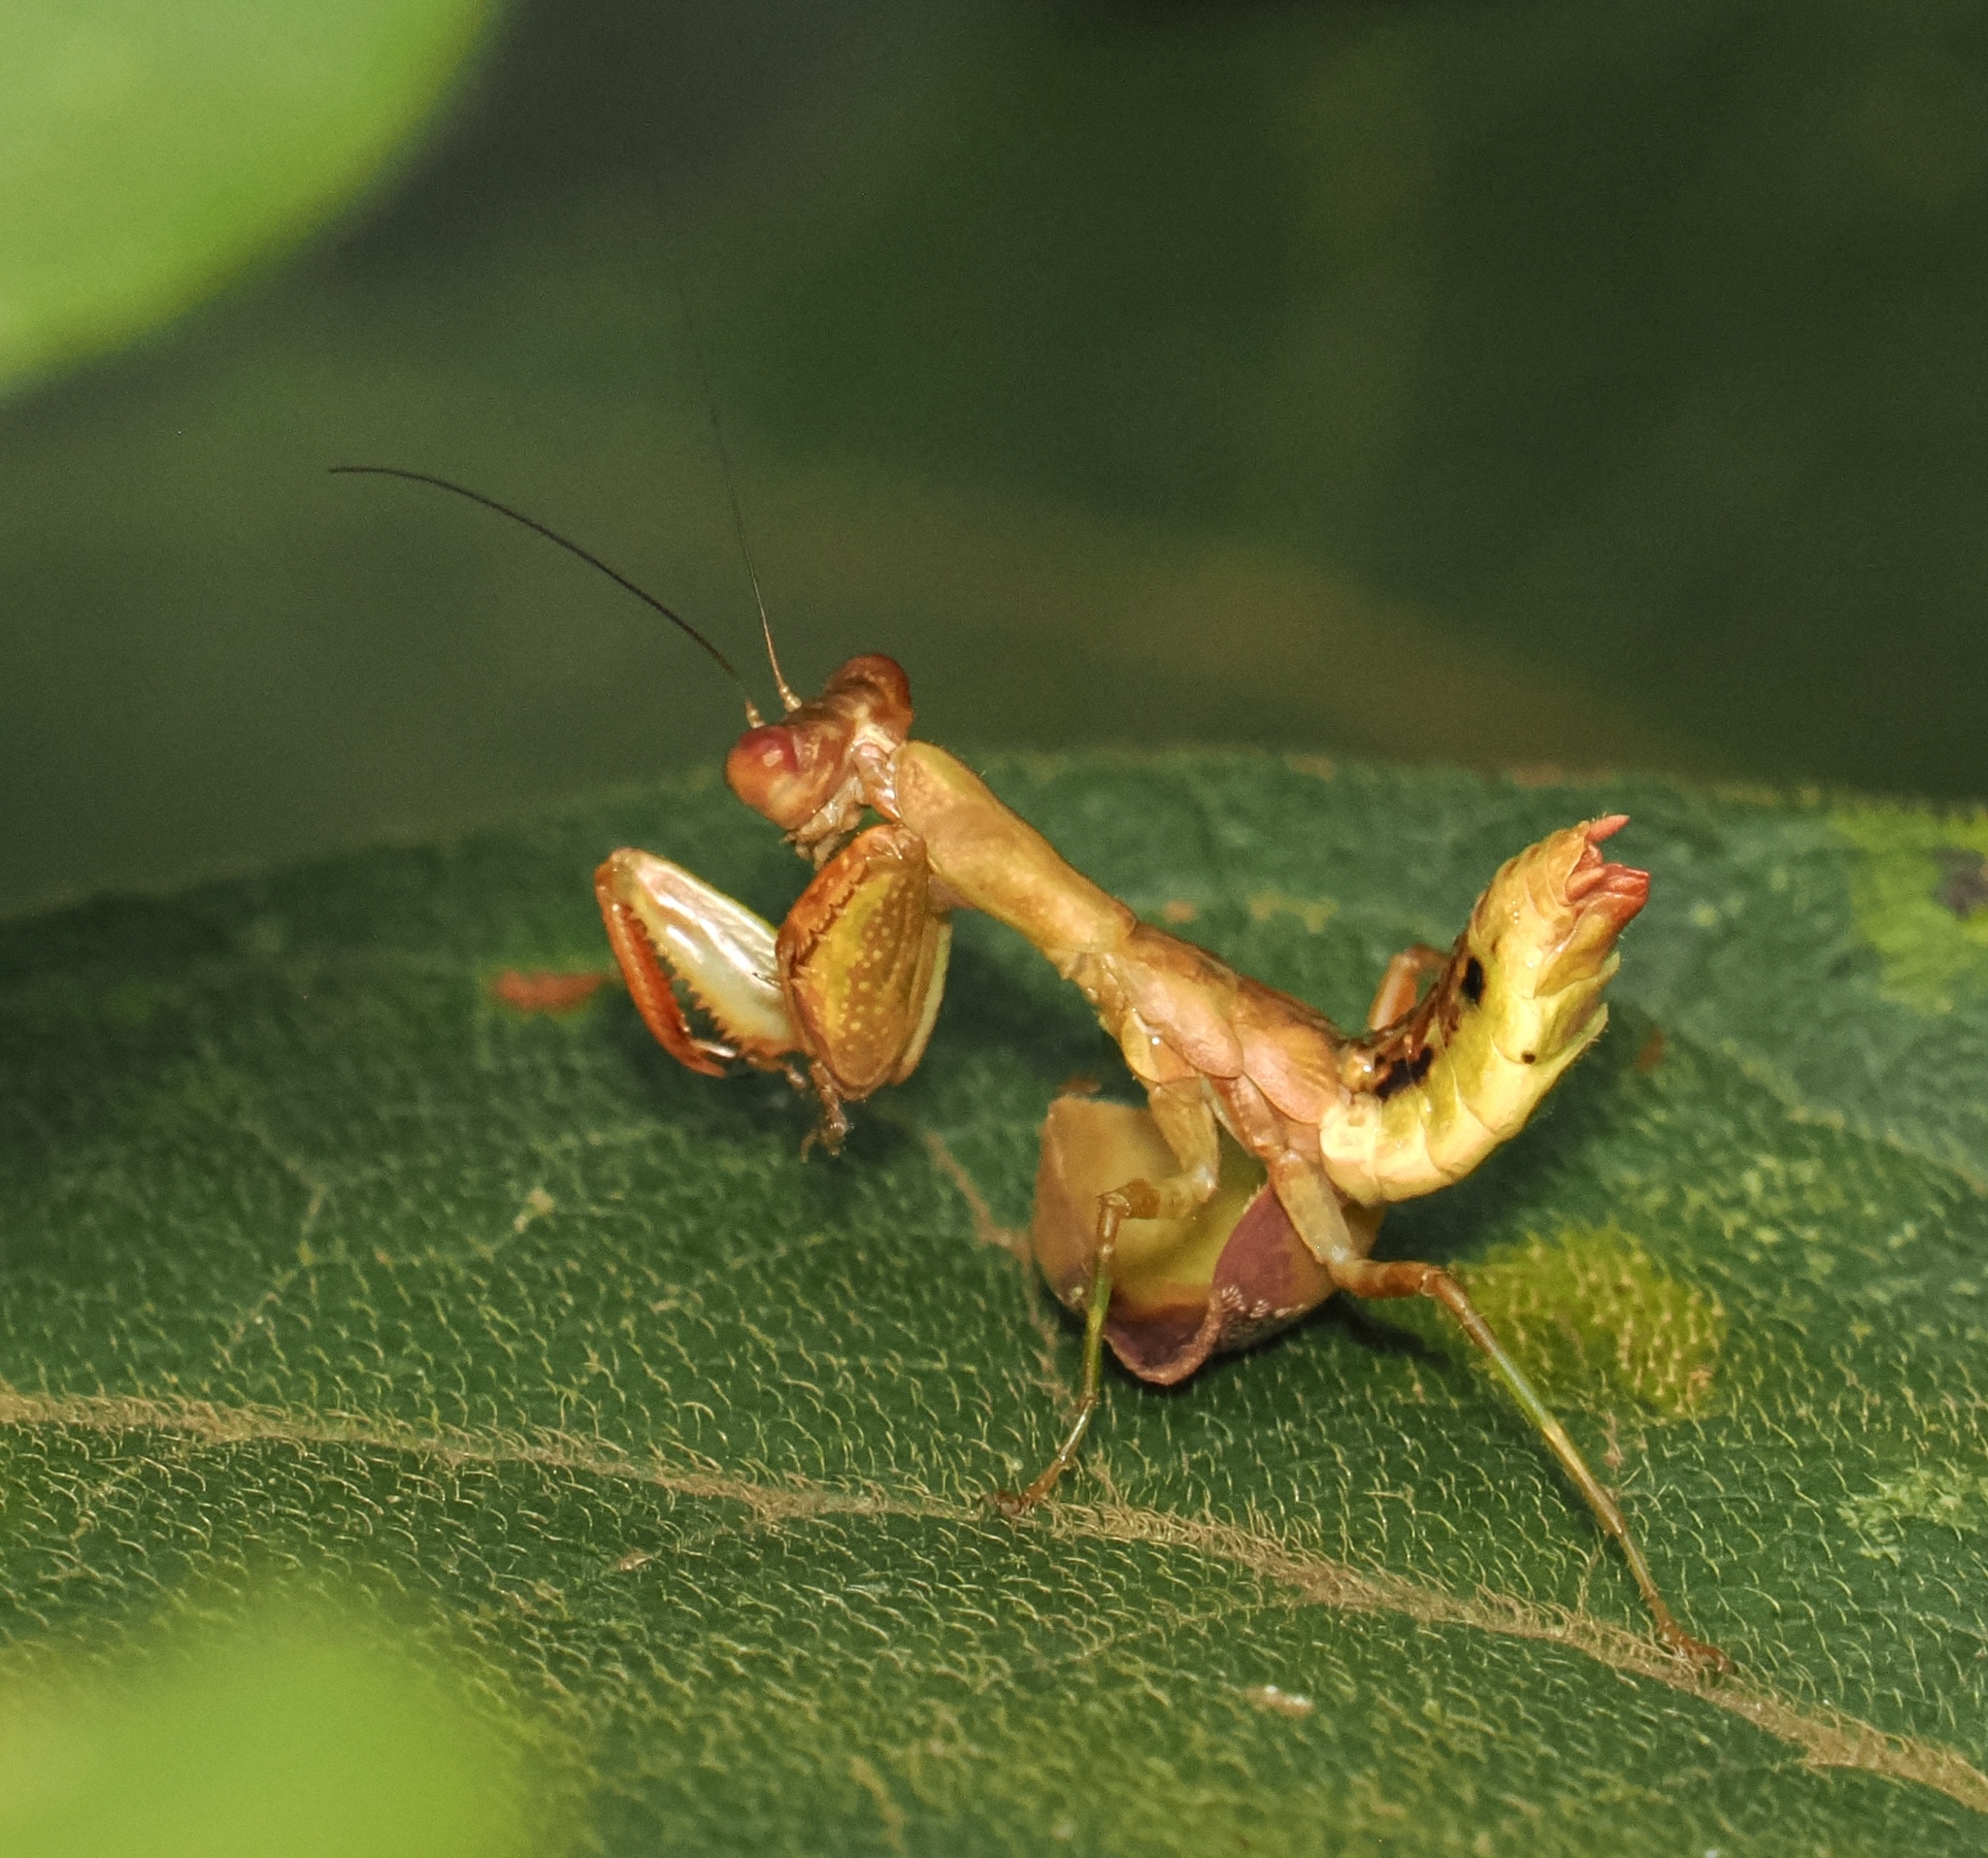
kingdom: Animalia
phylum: Arthropoda
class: Insecta
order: Mantodea
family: Acanthopidae
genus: Acontista
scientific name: Acontista concinna
